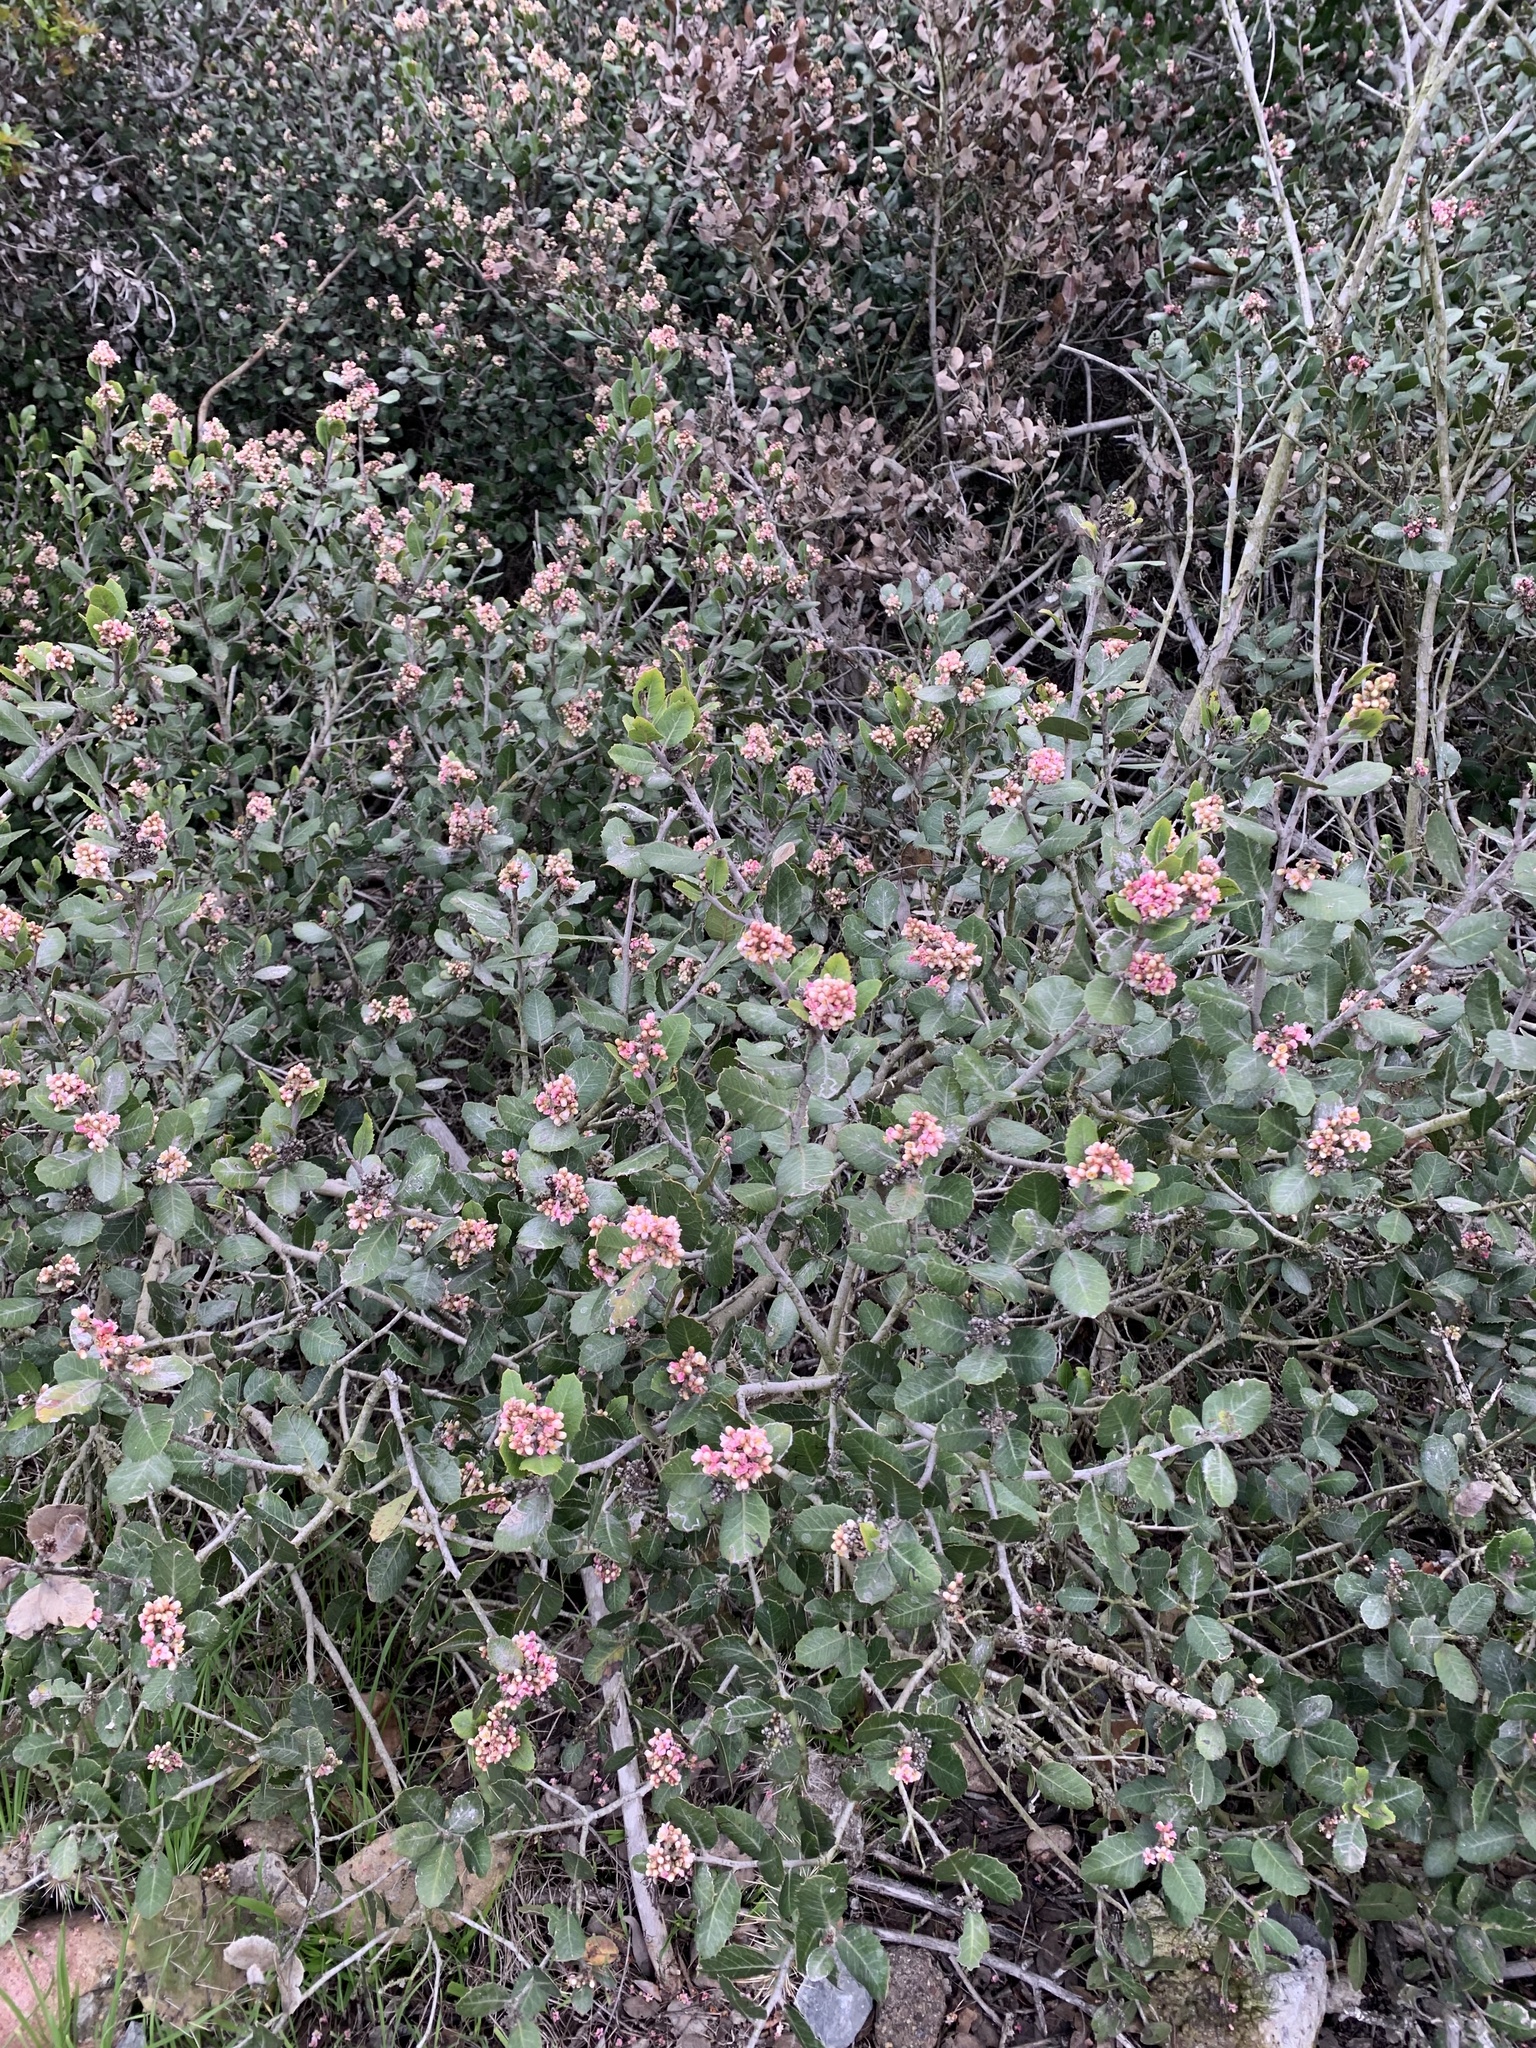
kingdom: Plantae
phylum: Tracheophyta
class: Magnoliopsida
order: Sapindales
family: Anacardiaceae
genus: Rhus
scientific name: Rhus integrifolia
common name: Lemonade sumac
